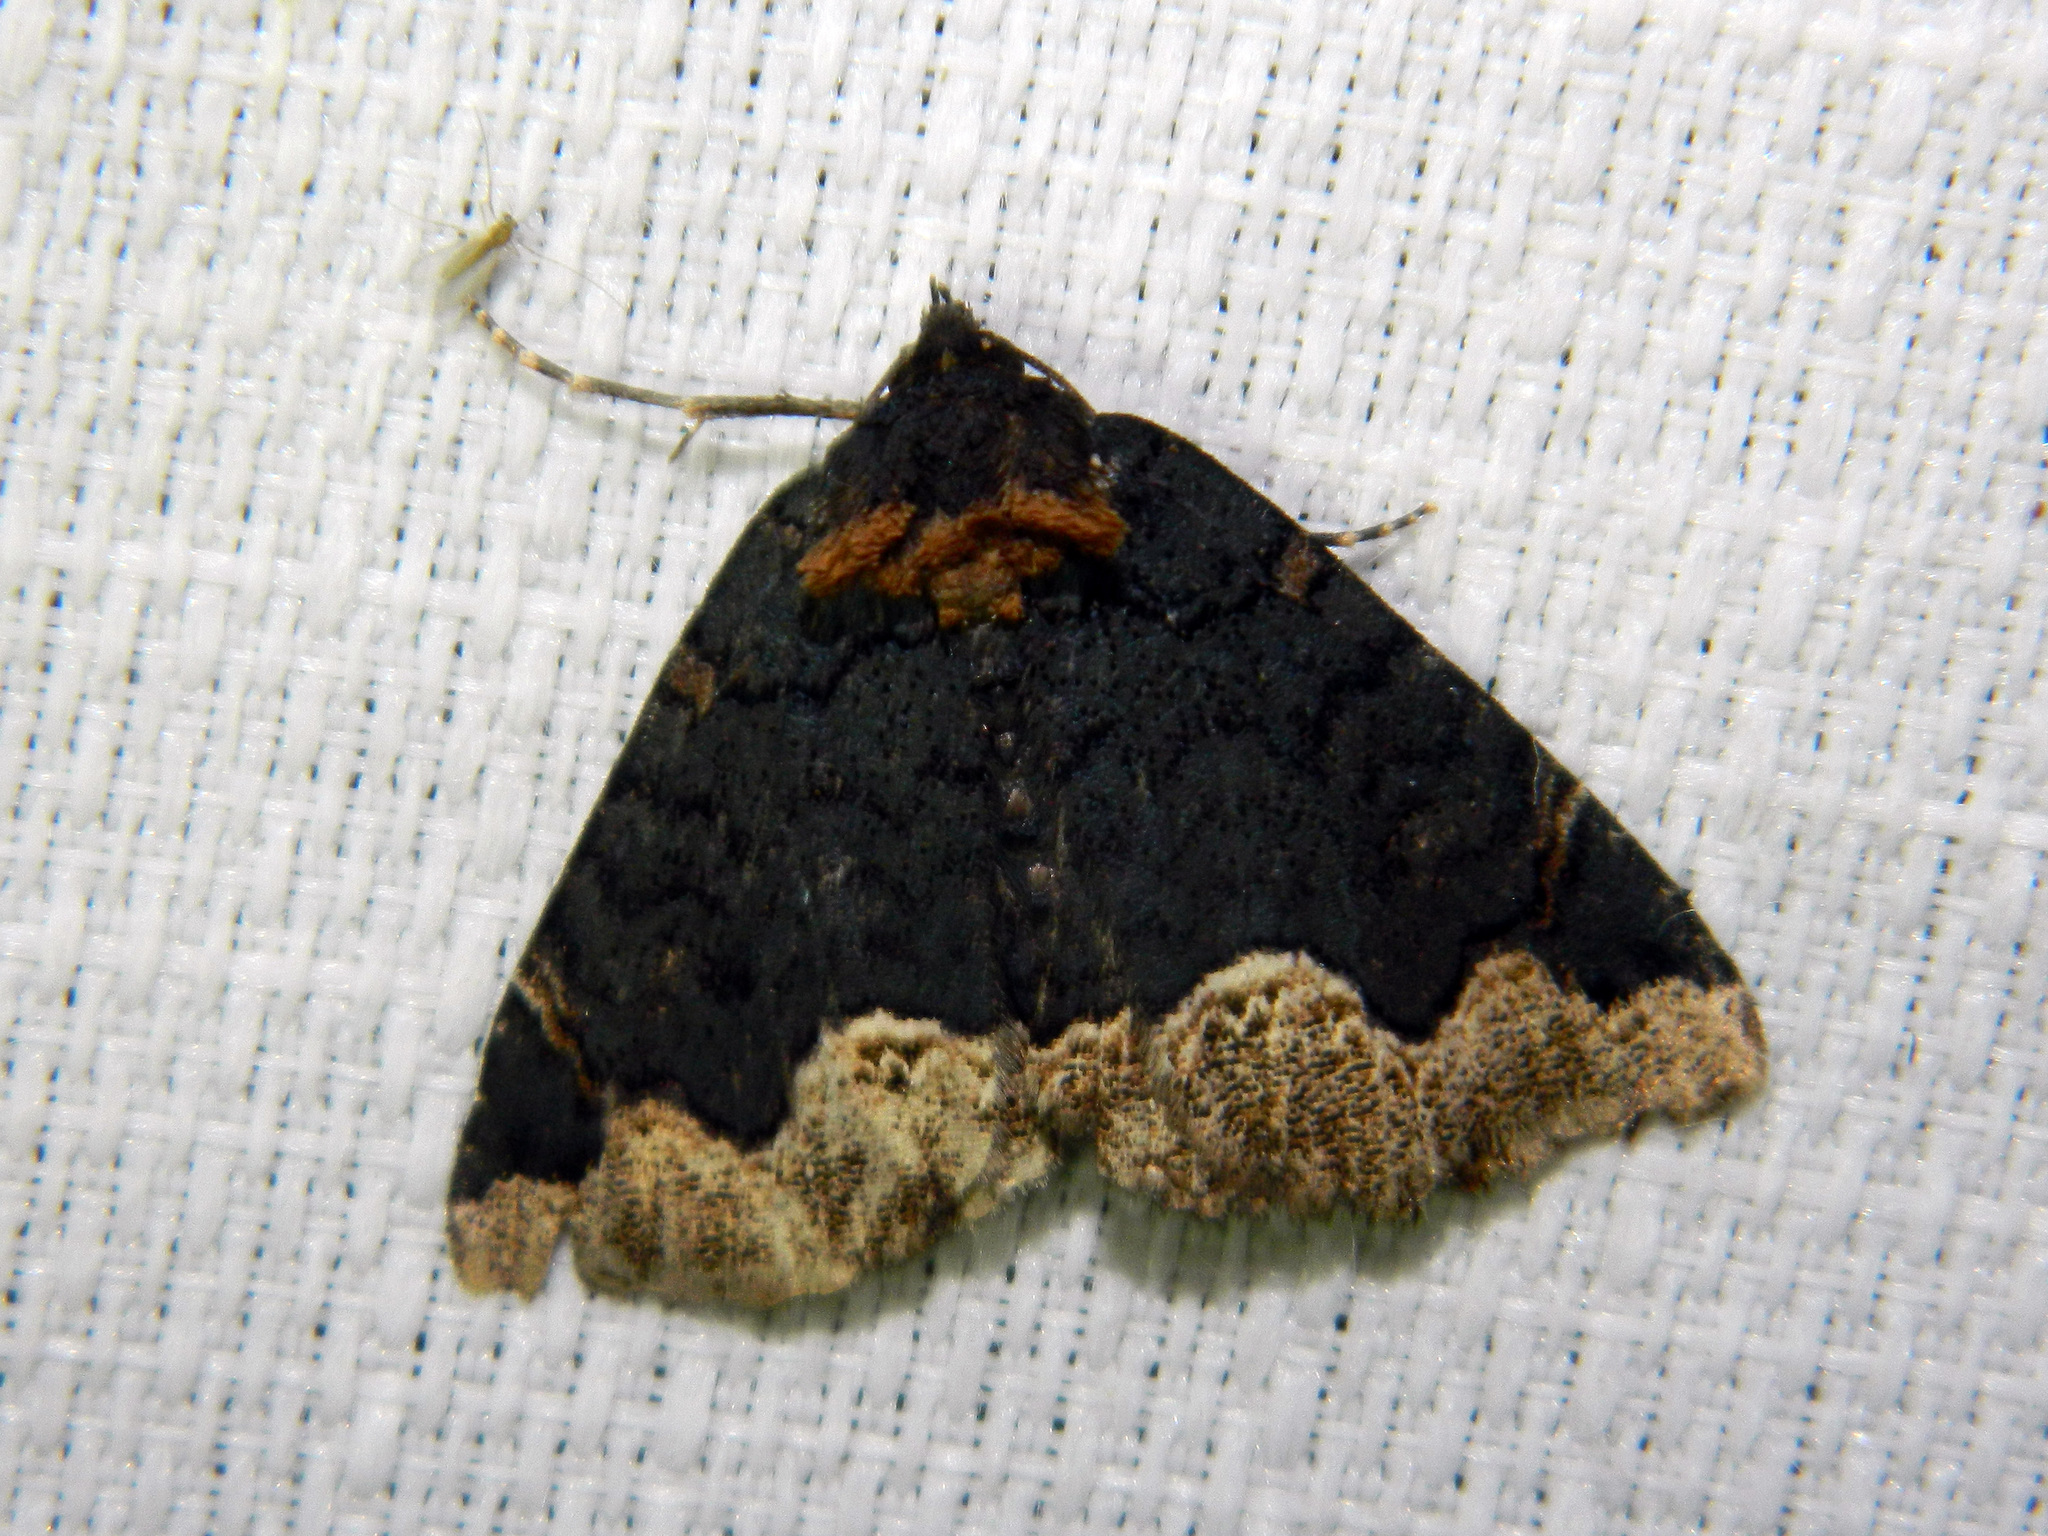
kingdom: Animalia
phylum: Arthropoda
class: Insecta
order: Lepidoptera
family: Erebidae
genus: Zale
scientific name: Zale horrida
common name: Horrid zale moth
